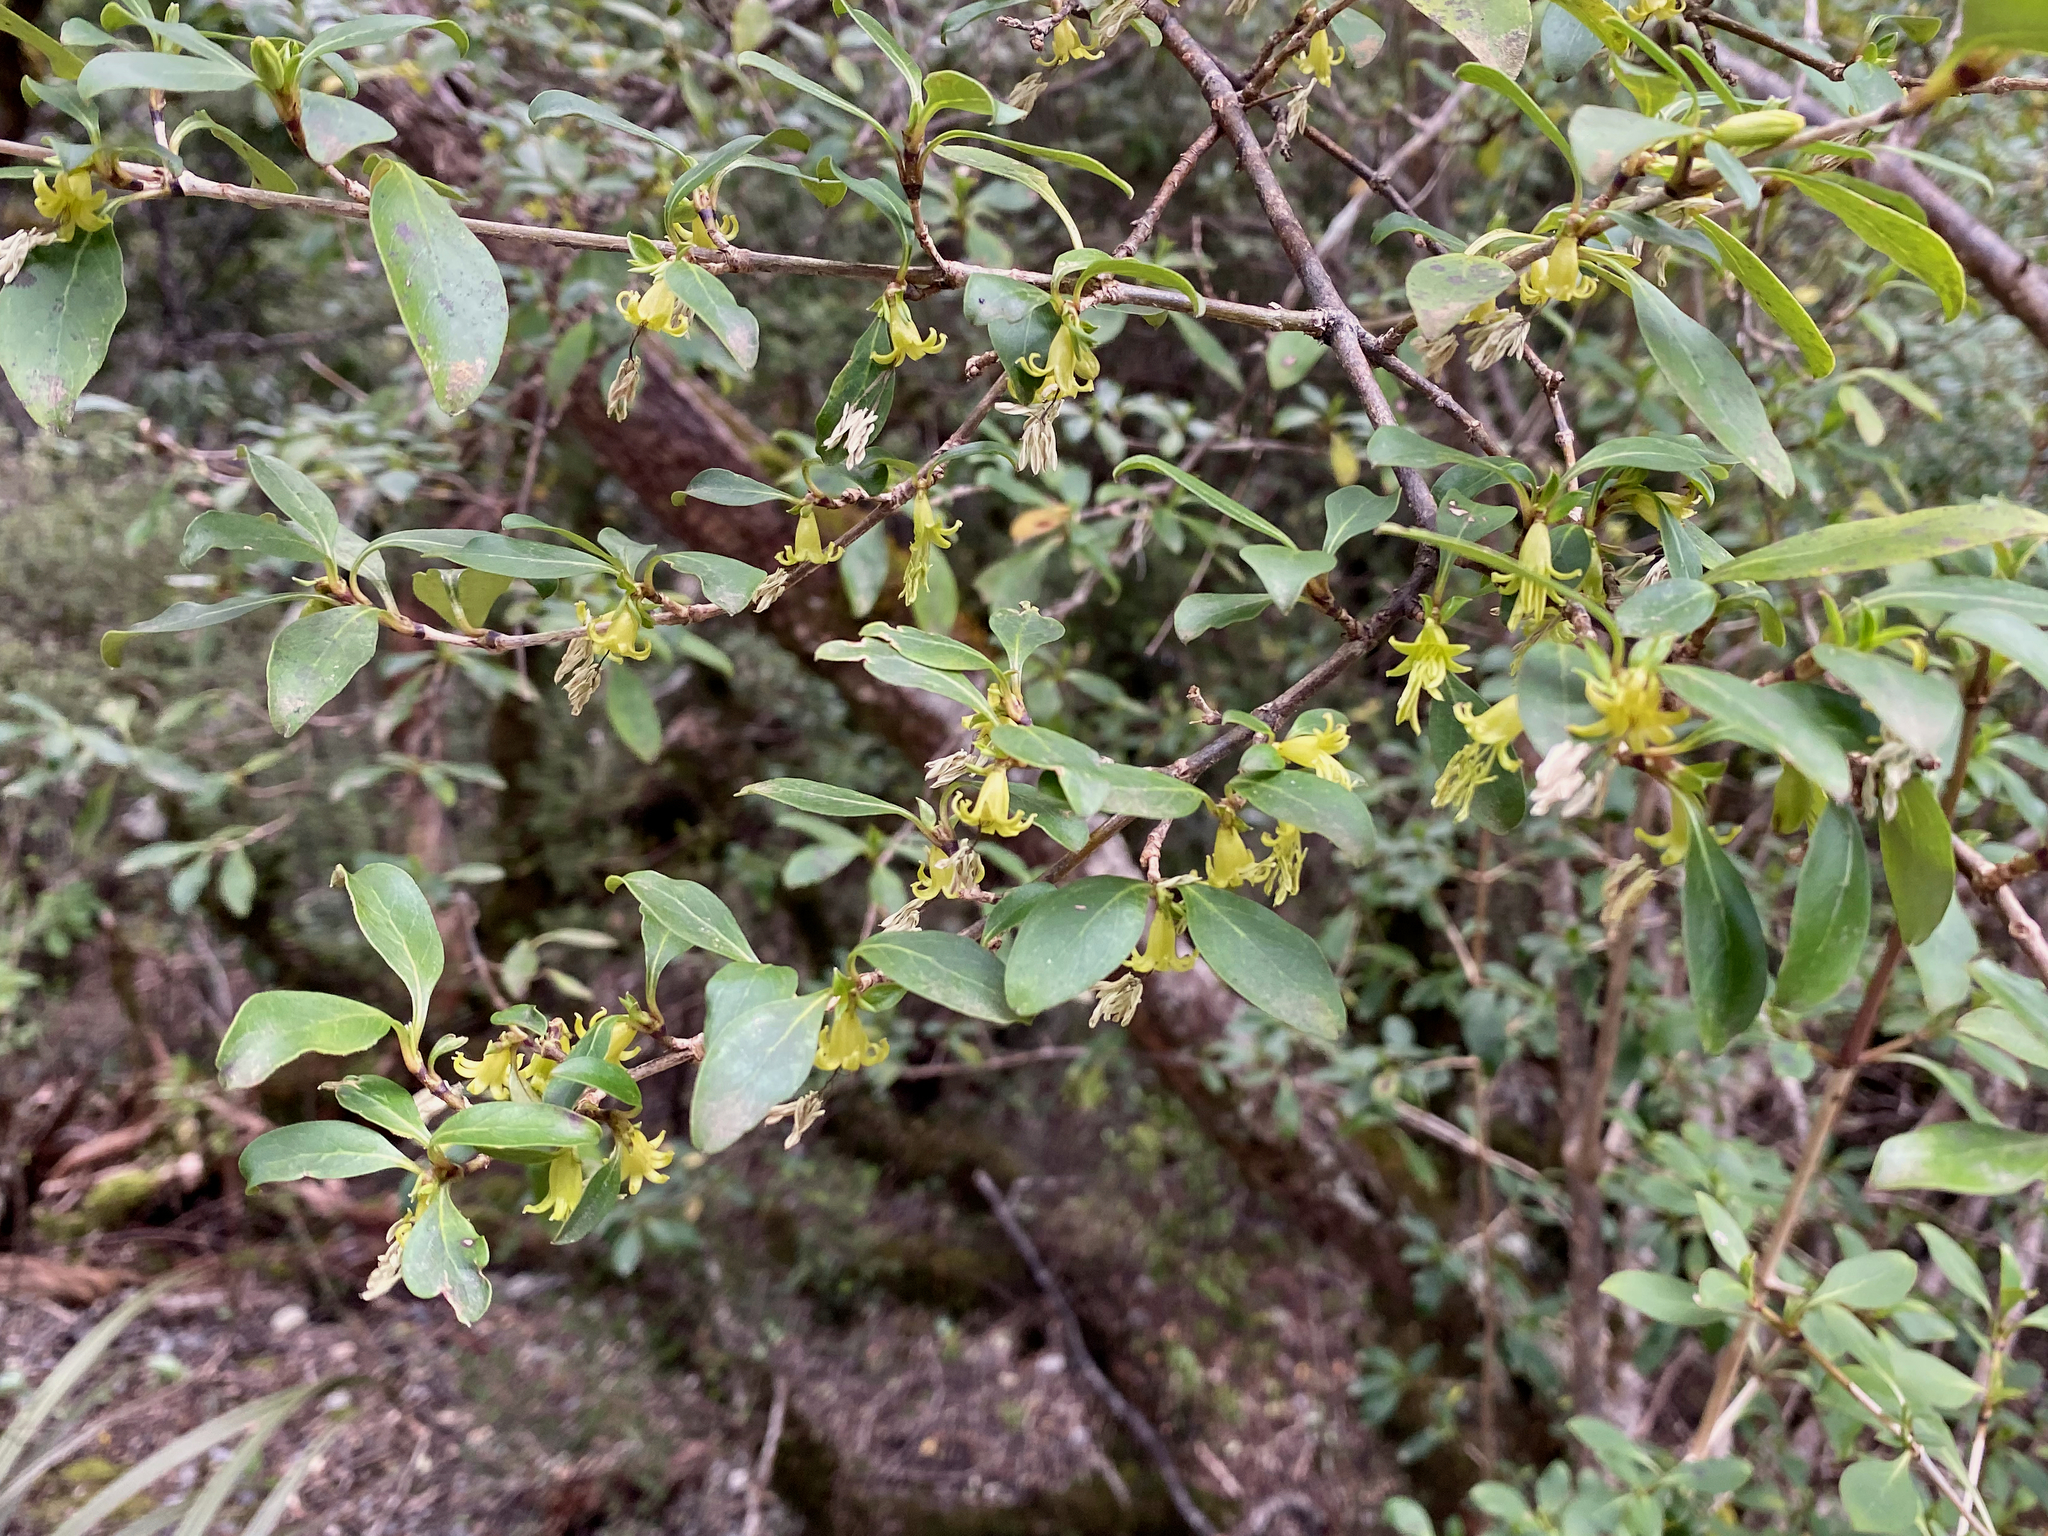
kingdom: Plantae
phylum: Tracheophyta
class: Magnoliopsida
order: Gentianales
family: Rubiaceae
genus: Coprosma
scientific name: Coprosma foetidissima
